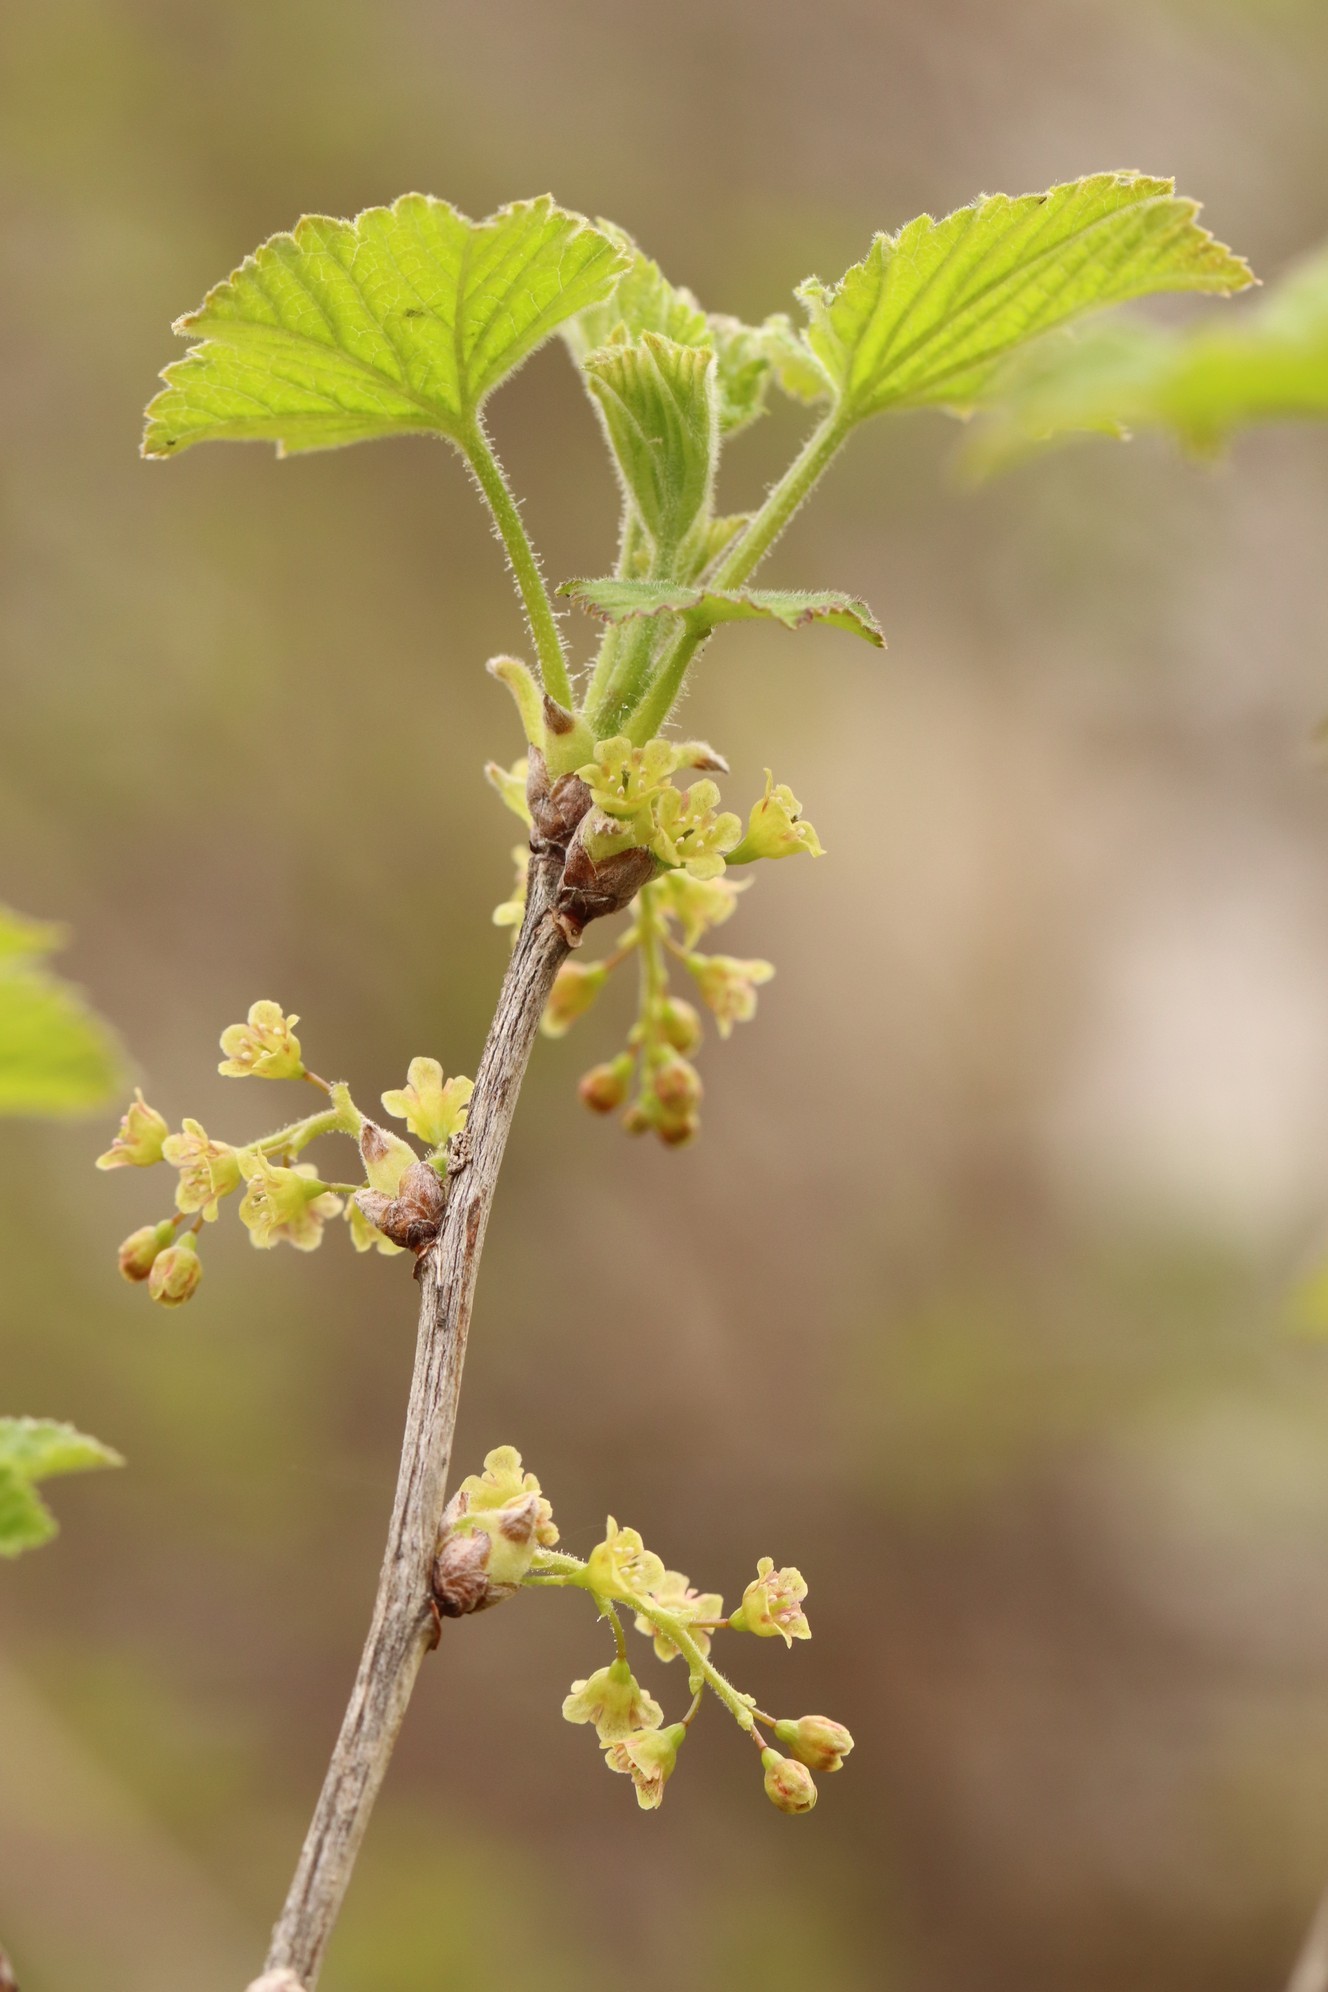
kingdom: Plantae
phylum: Tracheophyta
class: Magnoliopsida
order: Saxifragales
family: Grossulariaceae
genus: Ribes
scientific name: Ribes spicatum
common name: Downy currant
